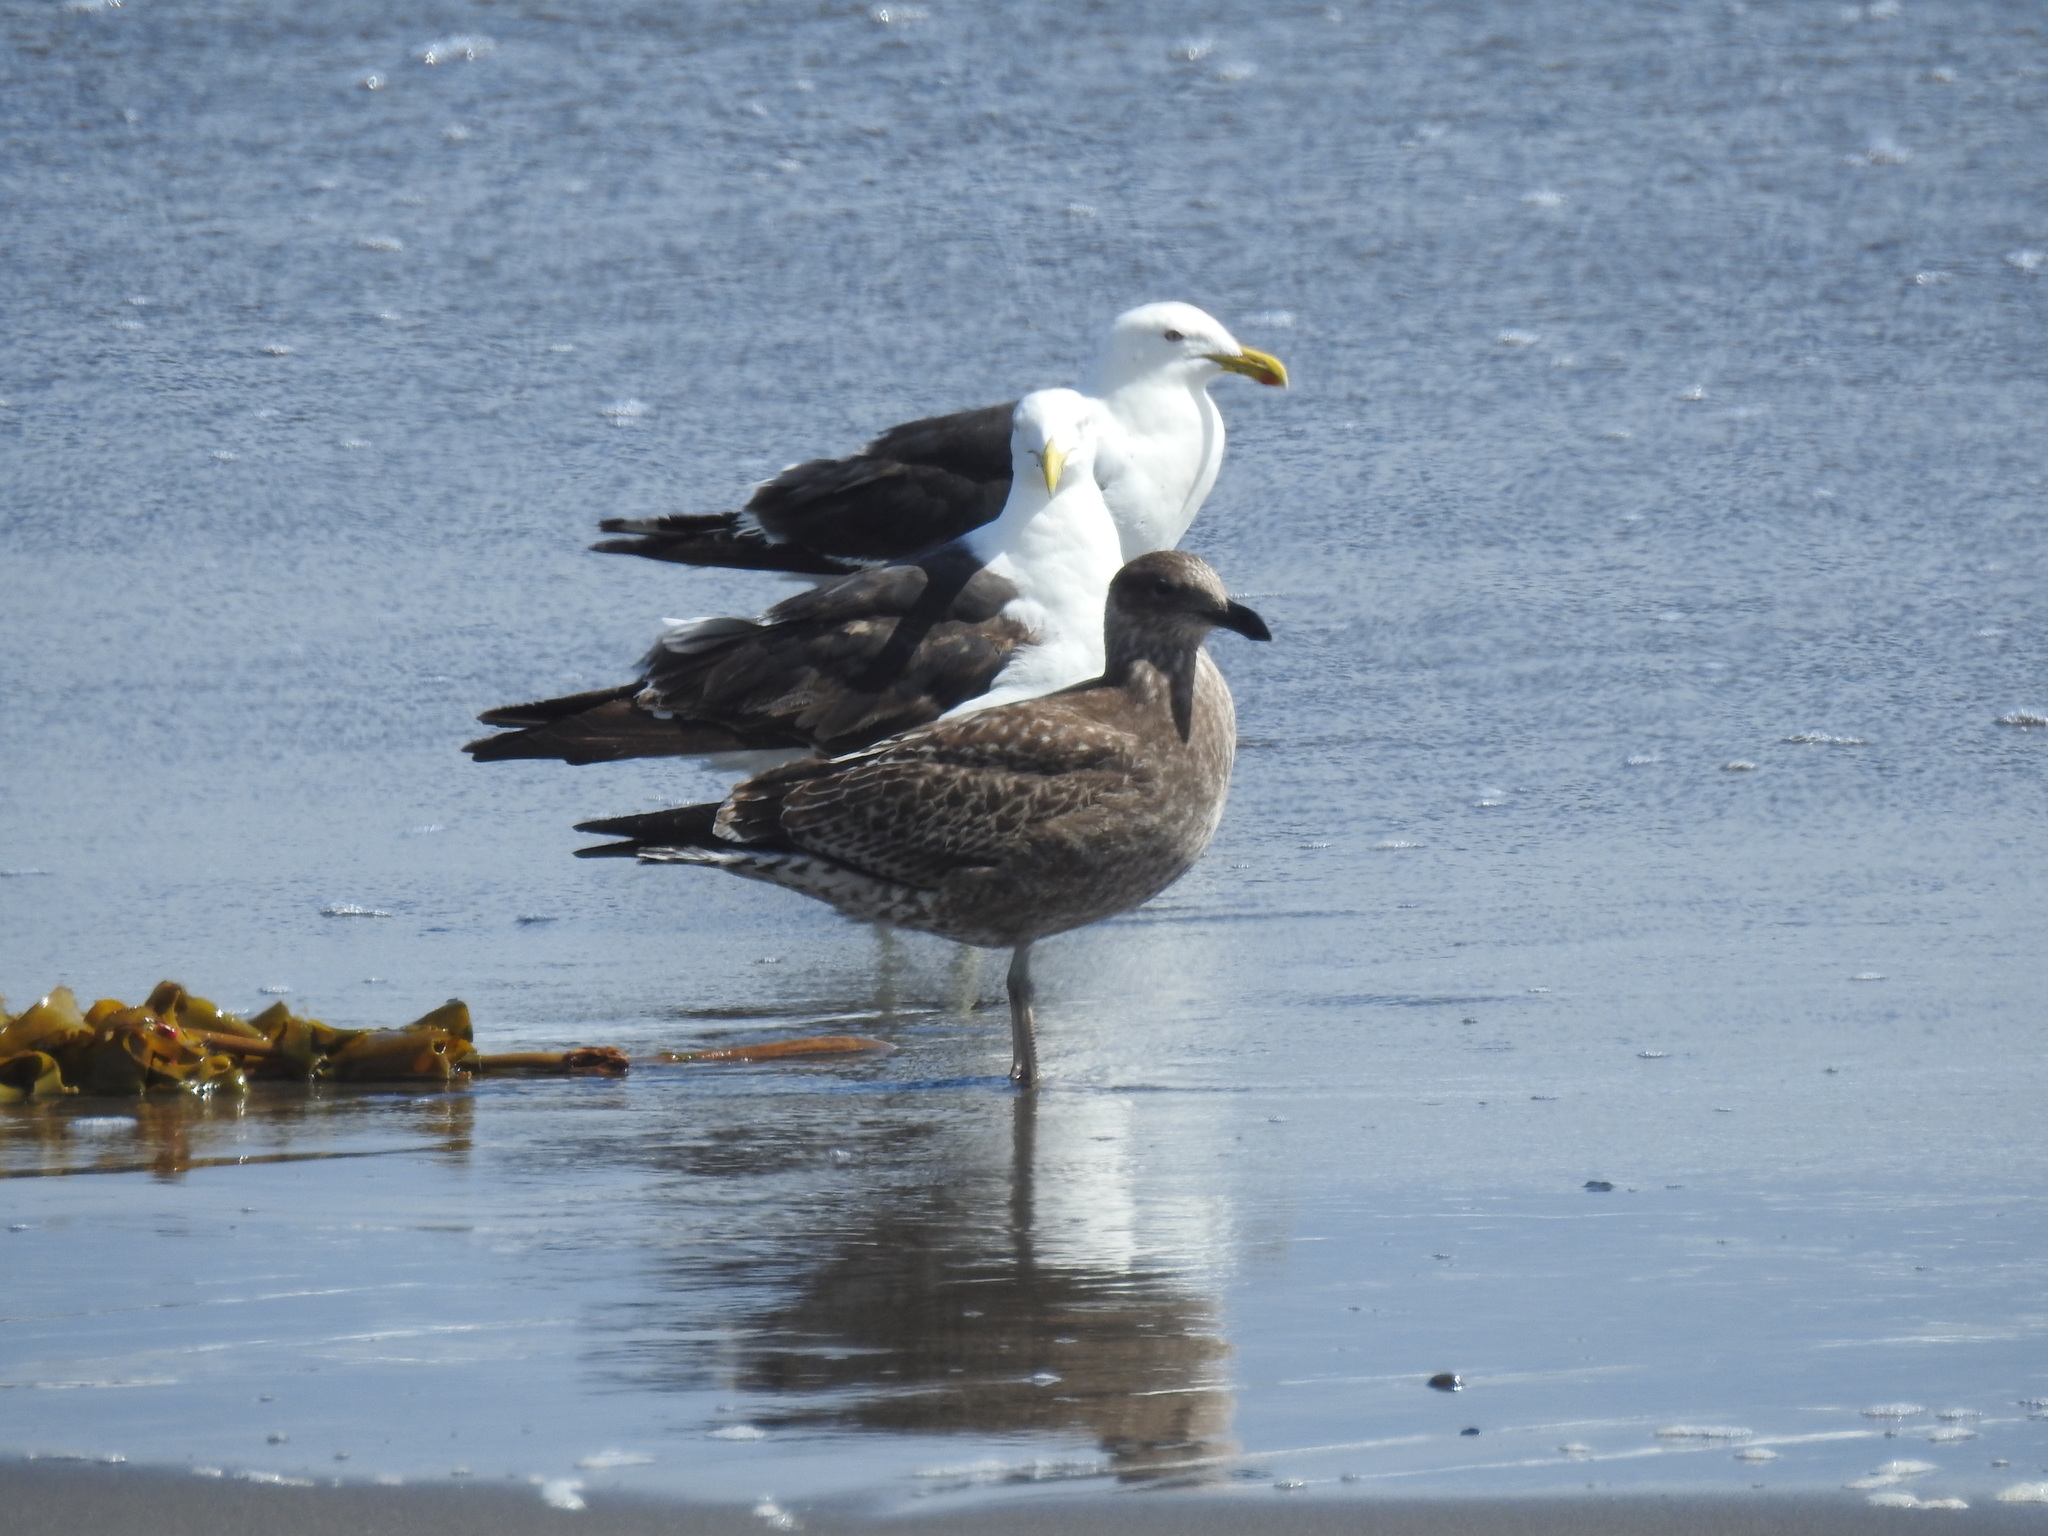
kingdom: Animalia
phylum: Chordata
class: Aves
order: Charadriiformes
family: Laridae
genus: Larus
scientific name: Larus dominicanus
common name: Kelp gull
